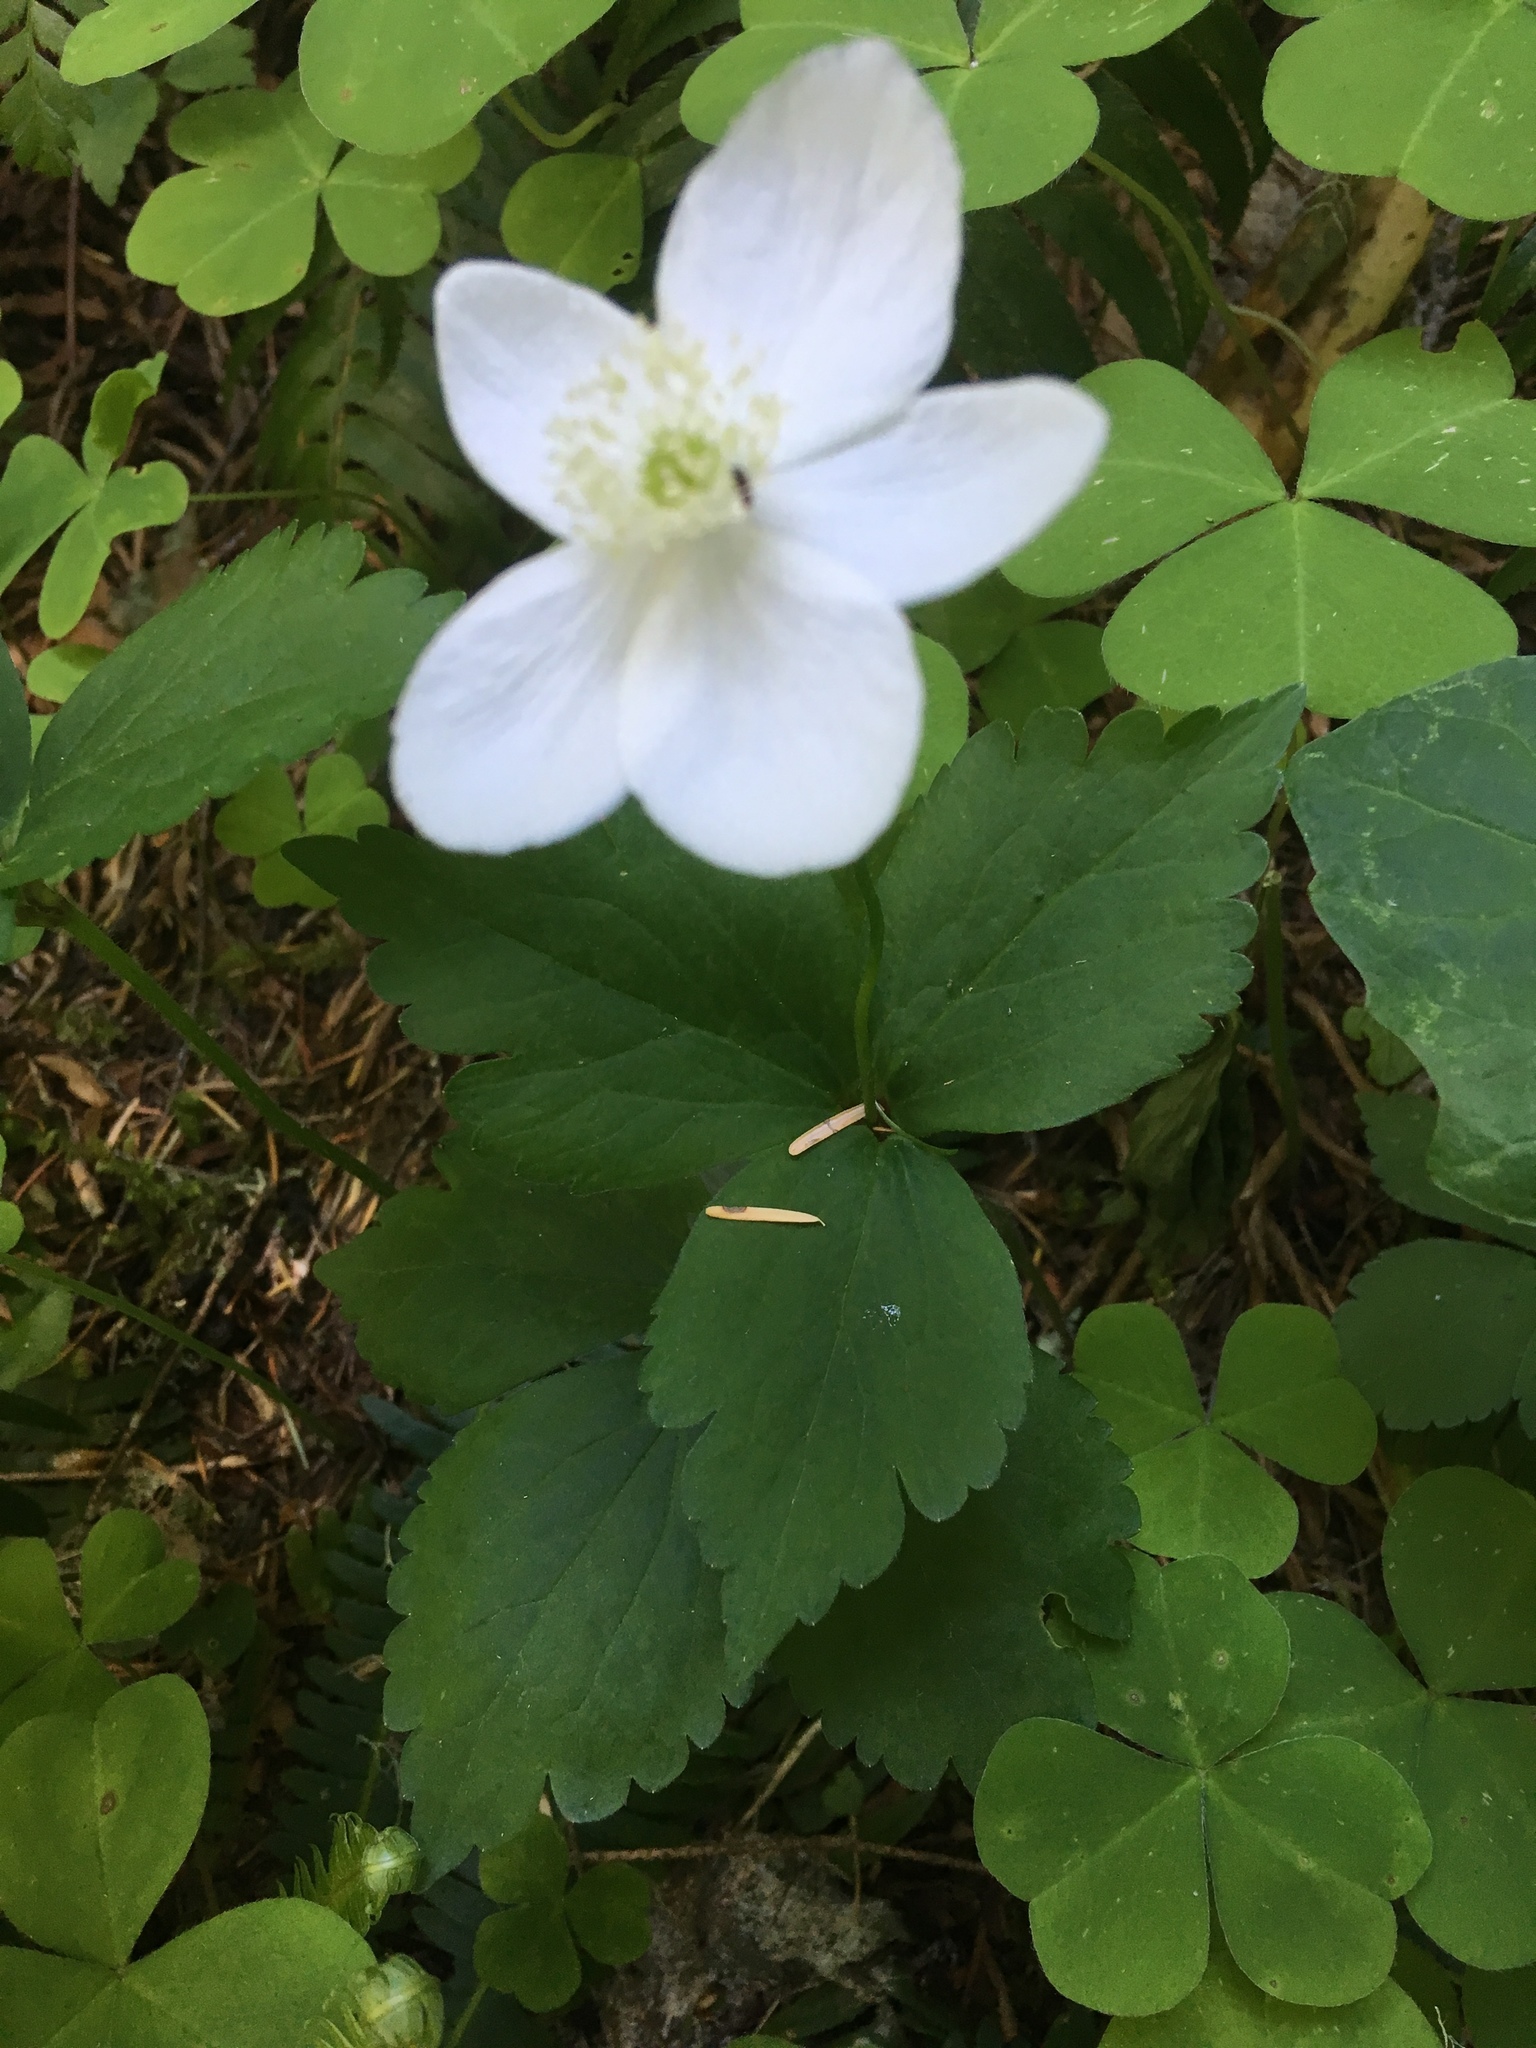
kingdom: Plantae
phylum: Tracheophyta
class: Magnoliopsida
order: Ranunculales
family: Ranunculaceae
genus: Anemonastrum
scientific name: Anemonastrum deltoideum
